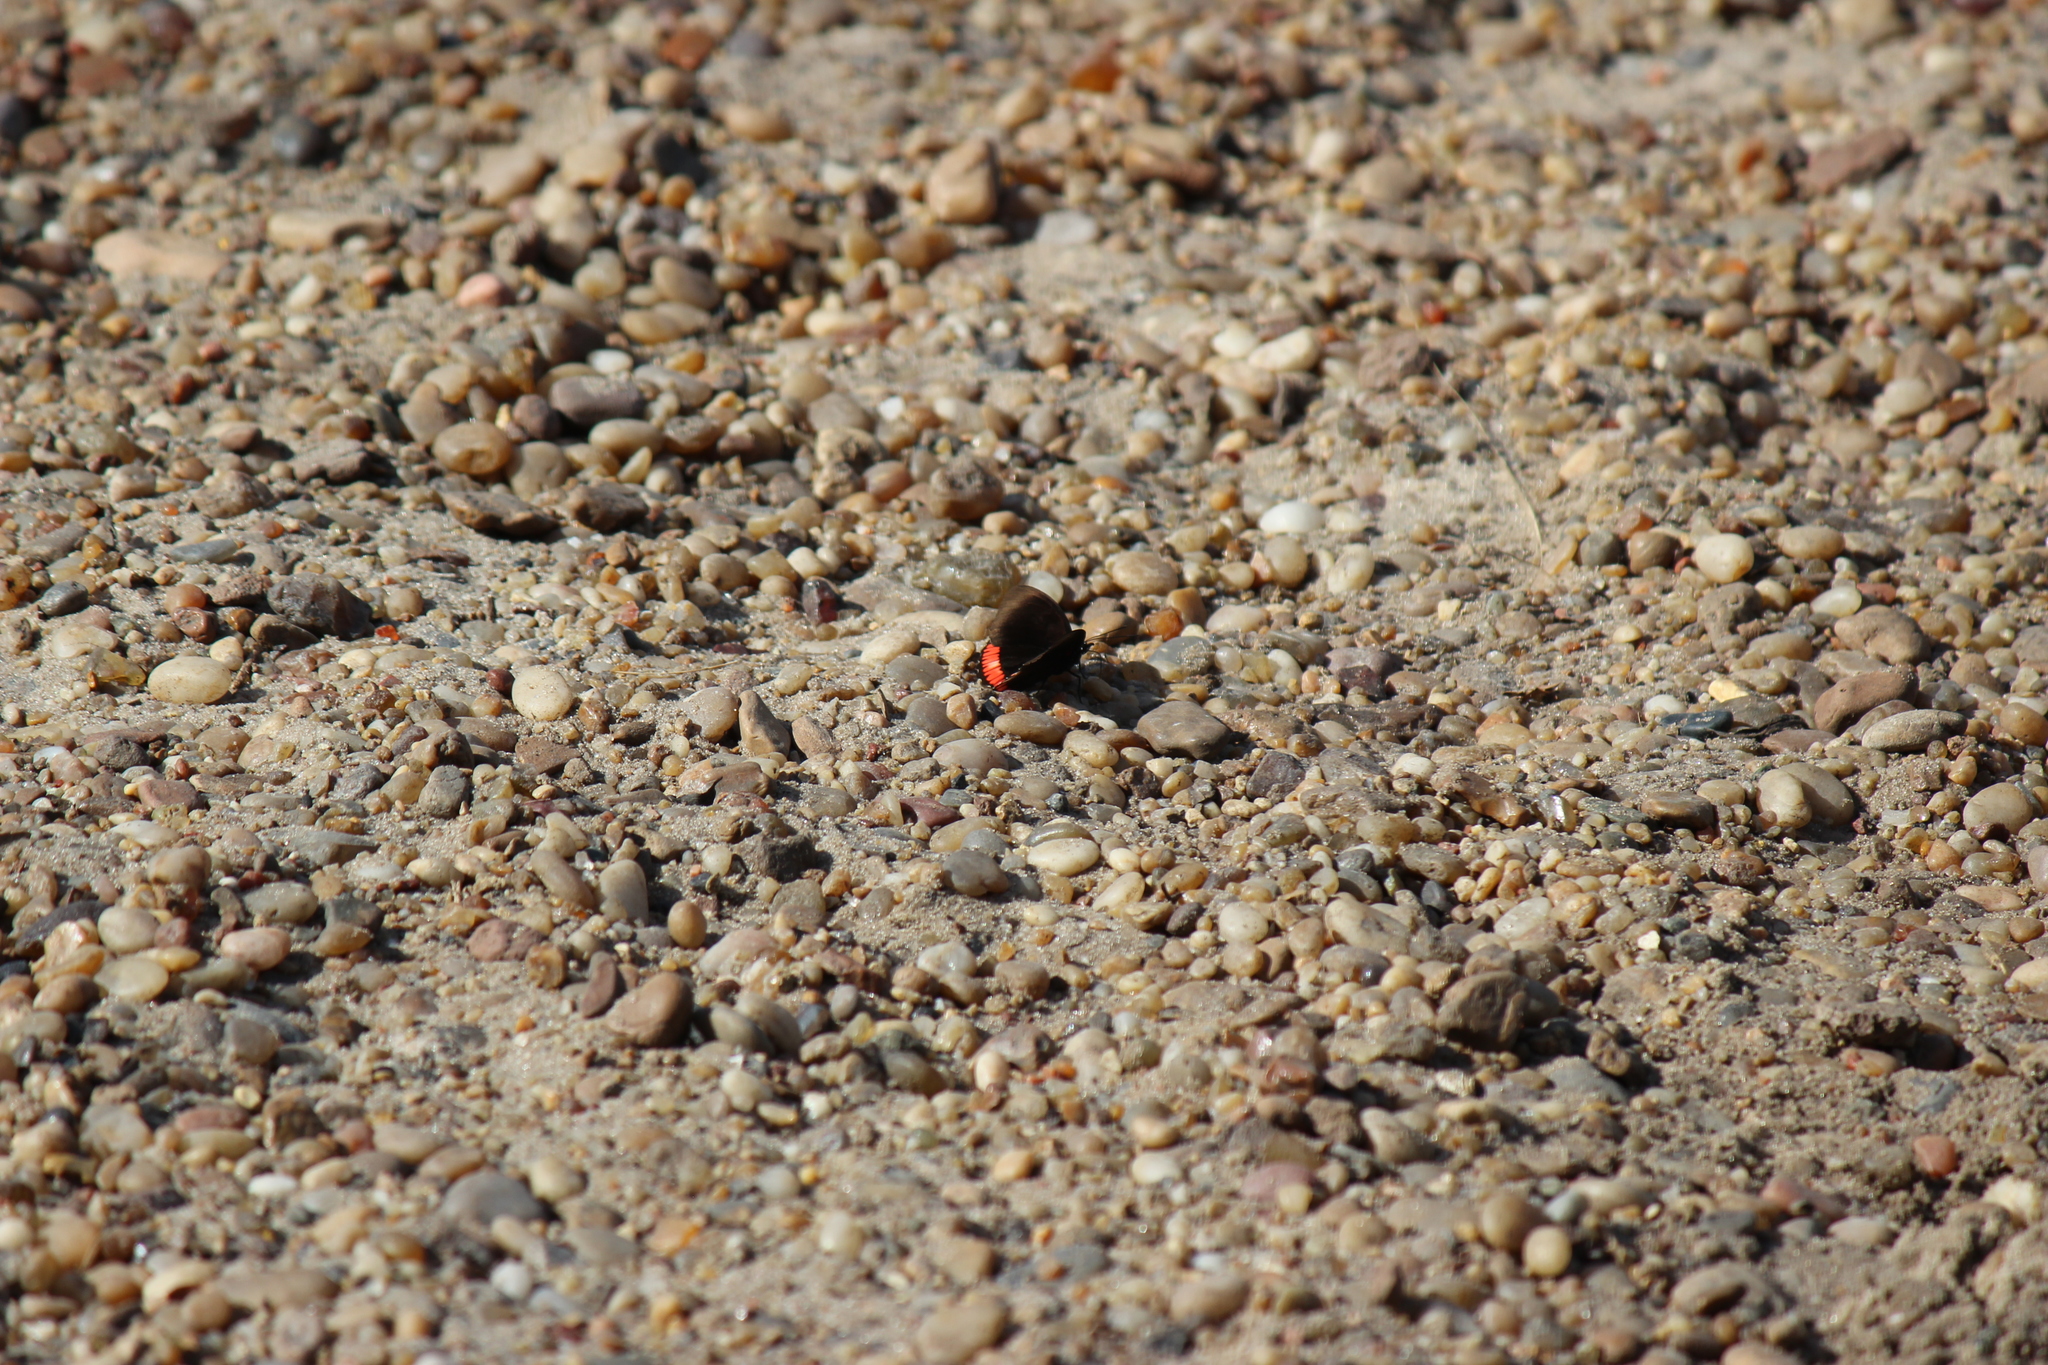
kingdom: Animalia
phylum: Arthropoda
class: Insecta
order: Lepidoptera
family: Sesiidae
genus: Sesia
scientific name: Sesia Biblis hyperia
